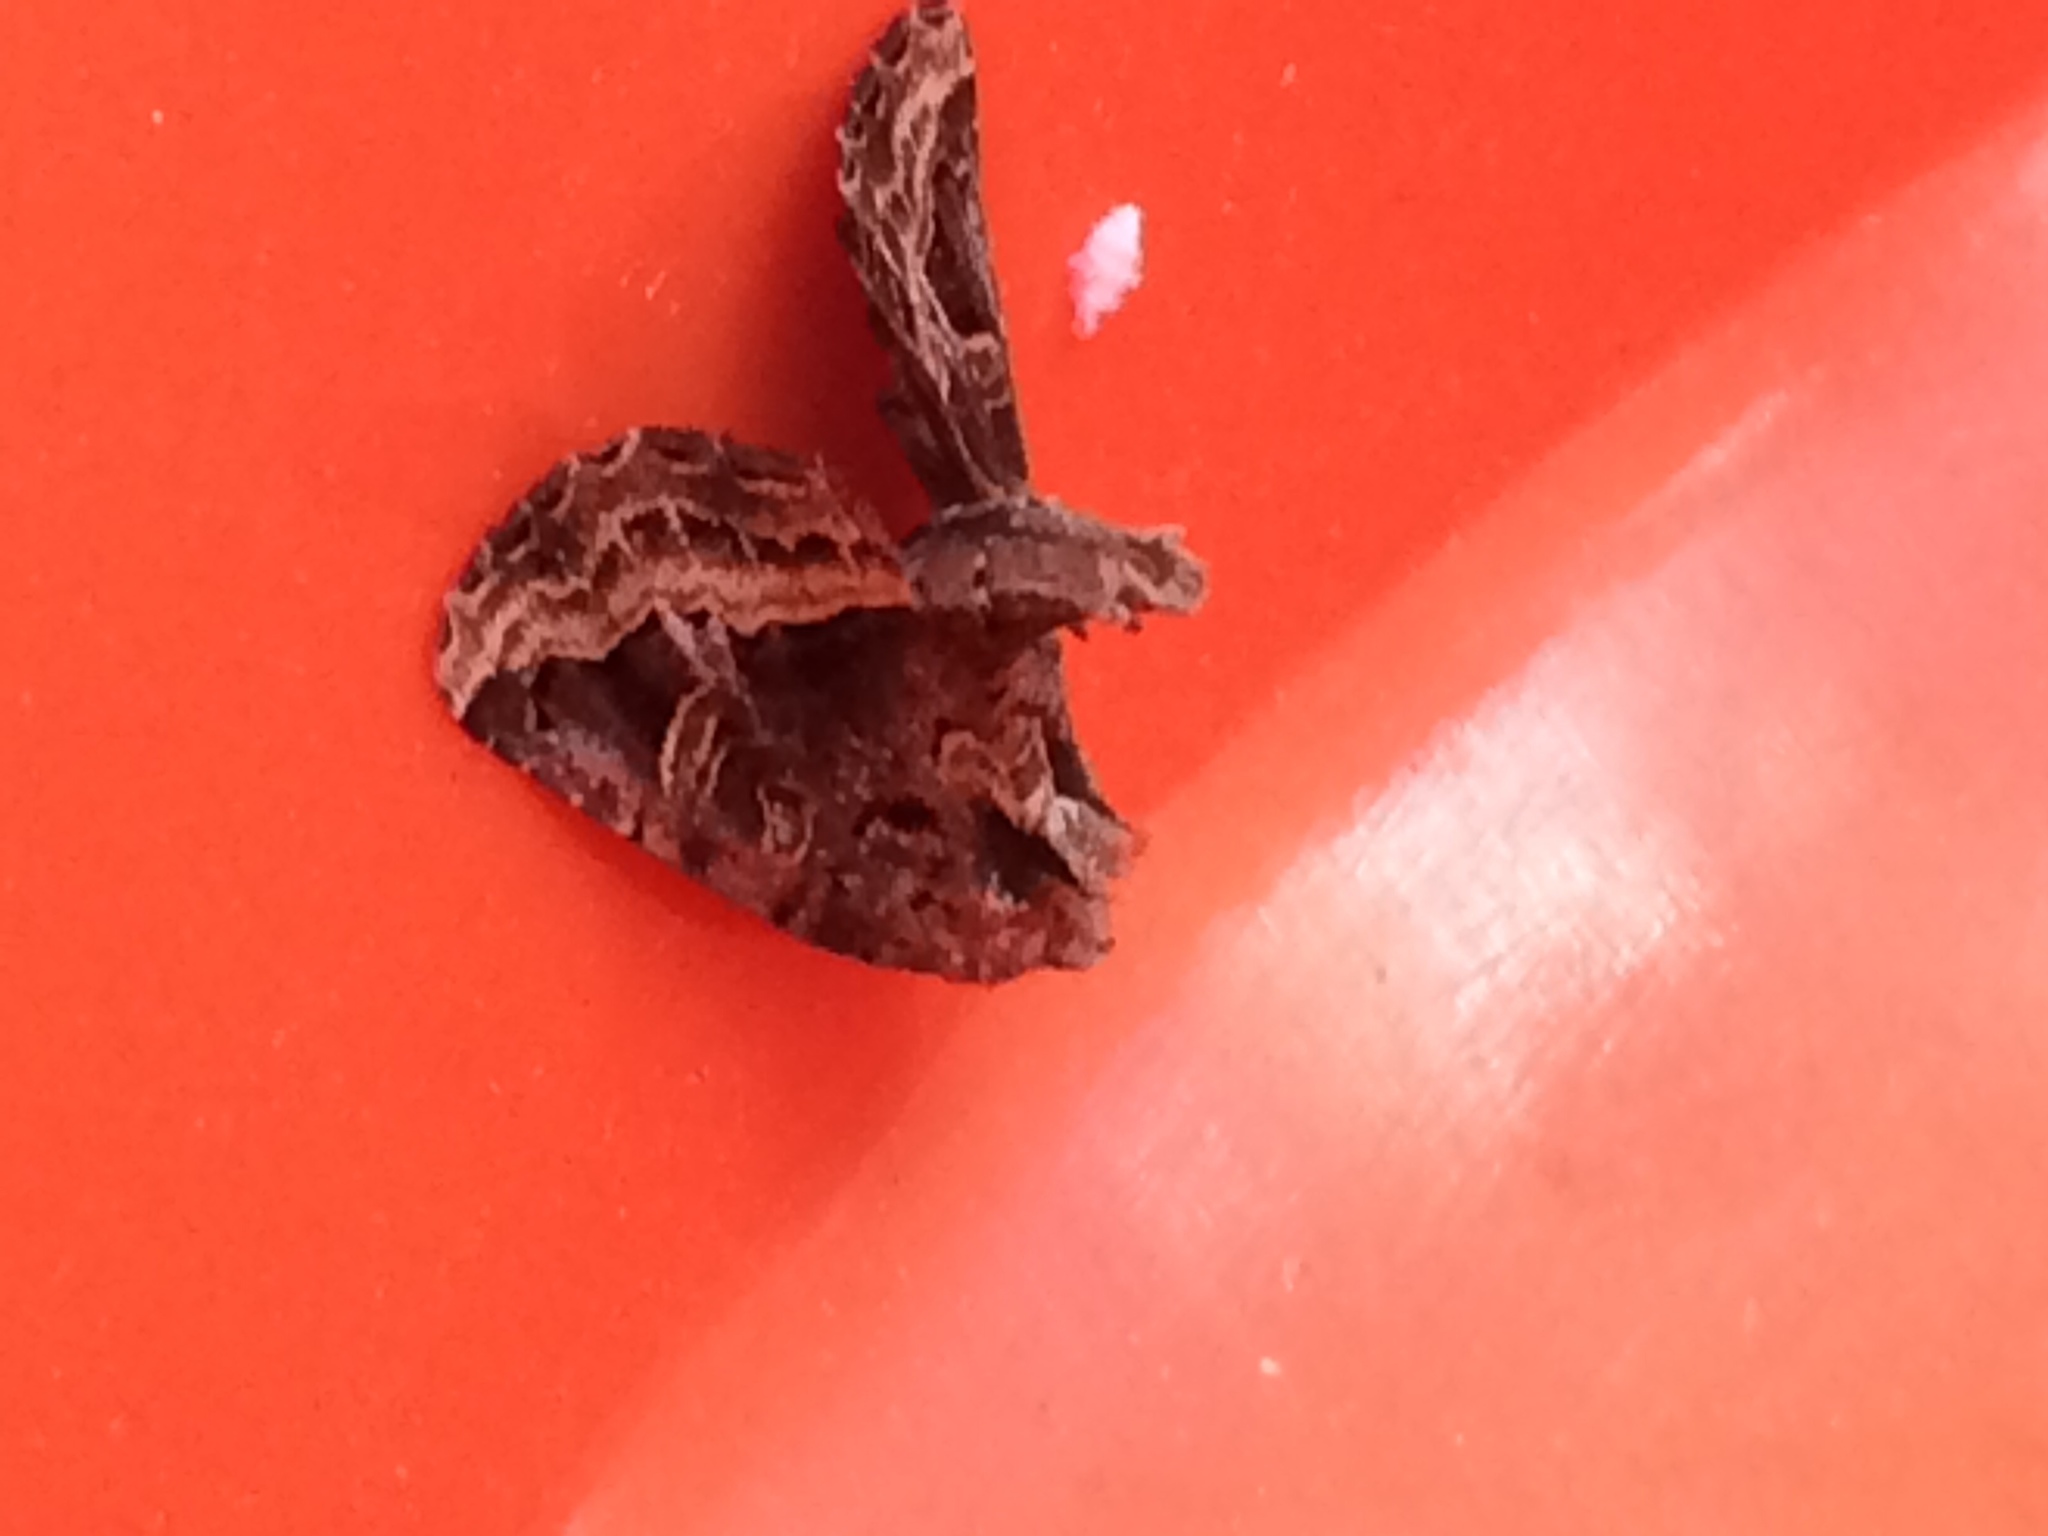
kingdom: Animalia
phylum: Arthropoda
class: Insecta
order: Lepidoptera
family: Noctuidae
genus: Homophoberia
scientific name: Homophoberia apicosa
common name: Black wedge-spot
